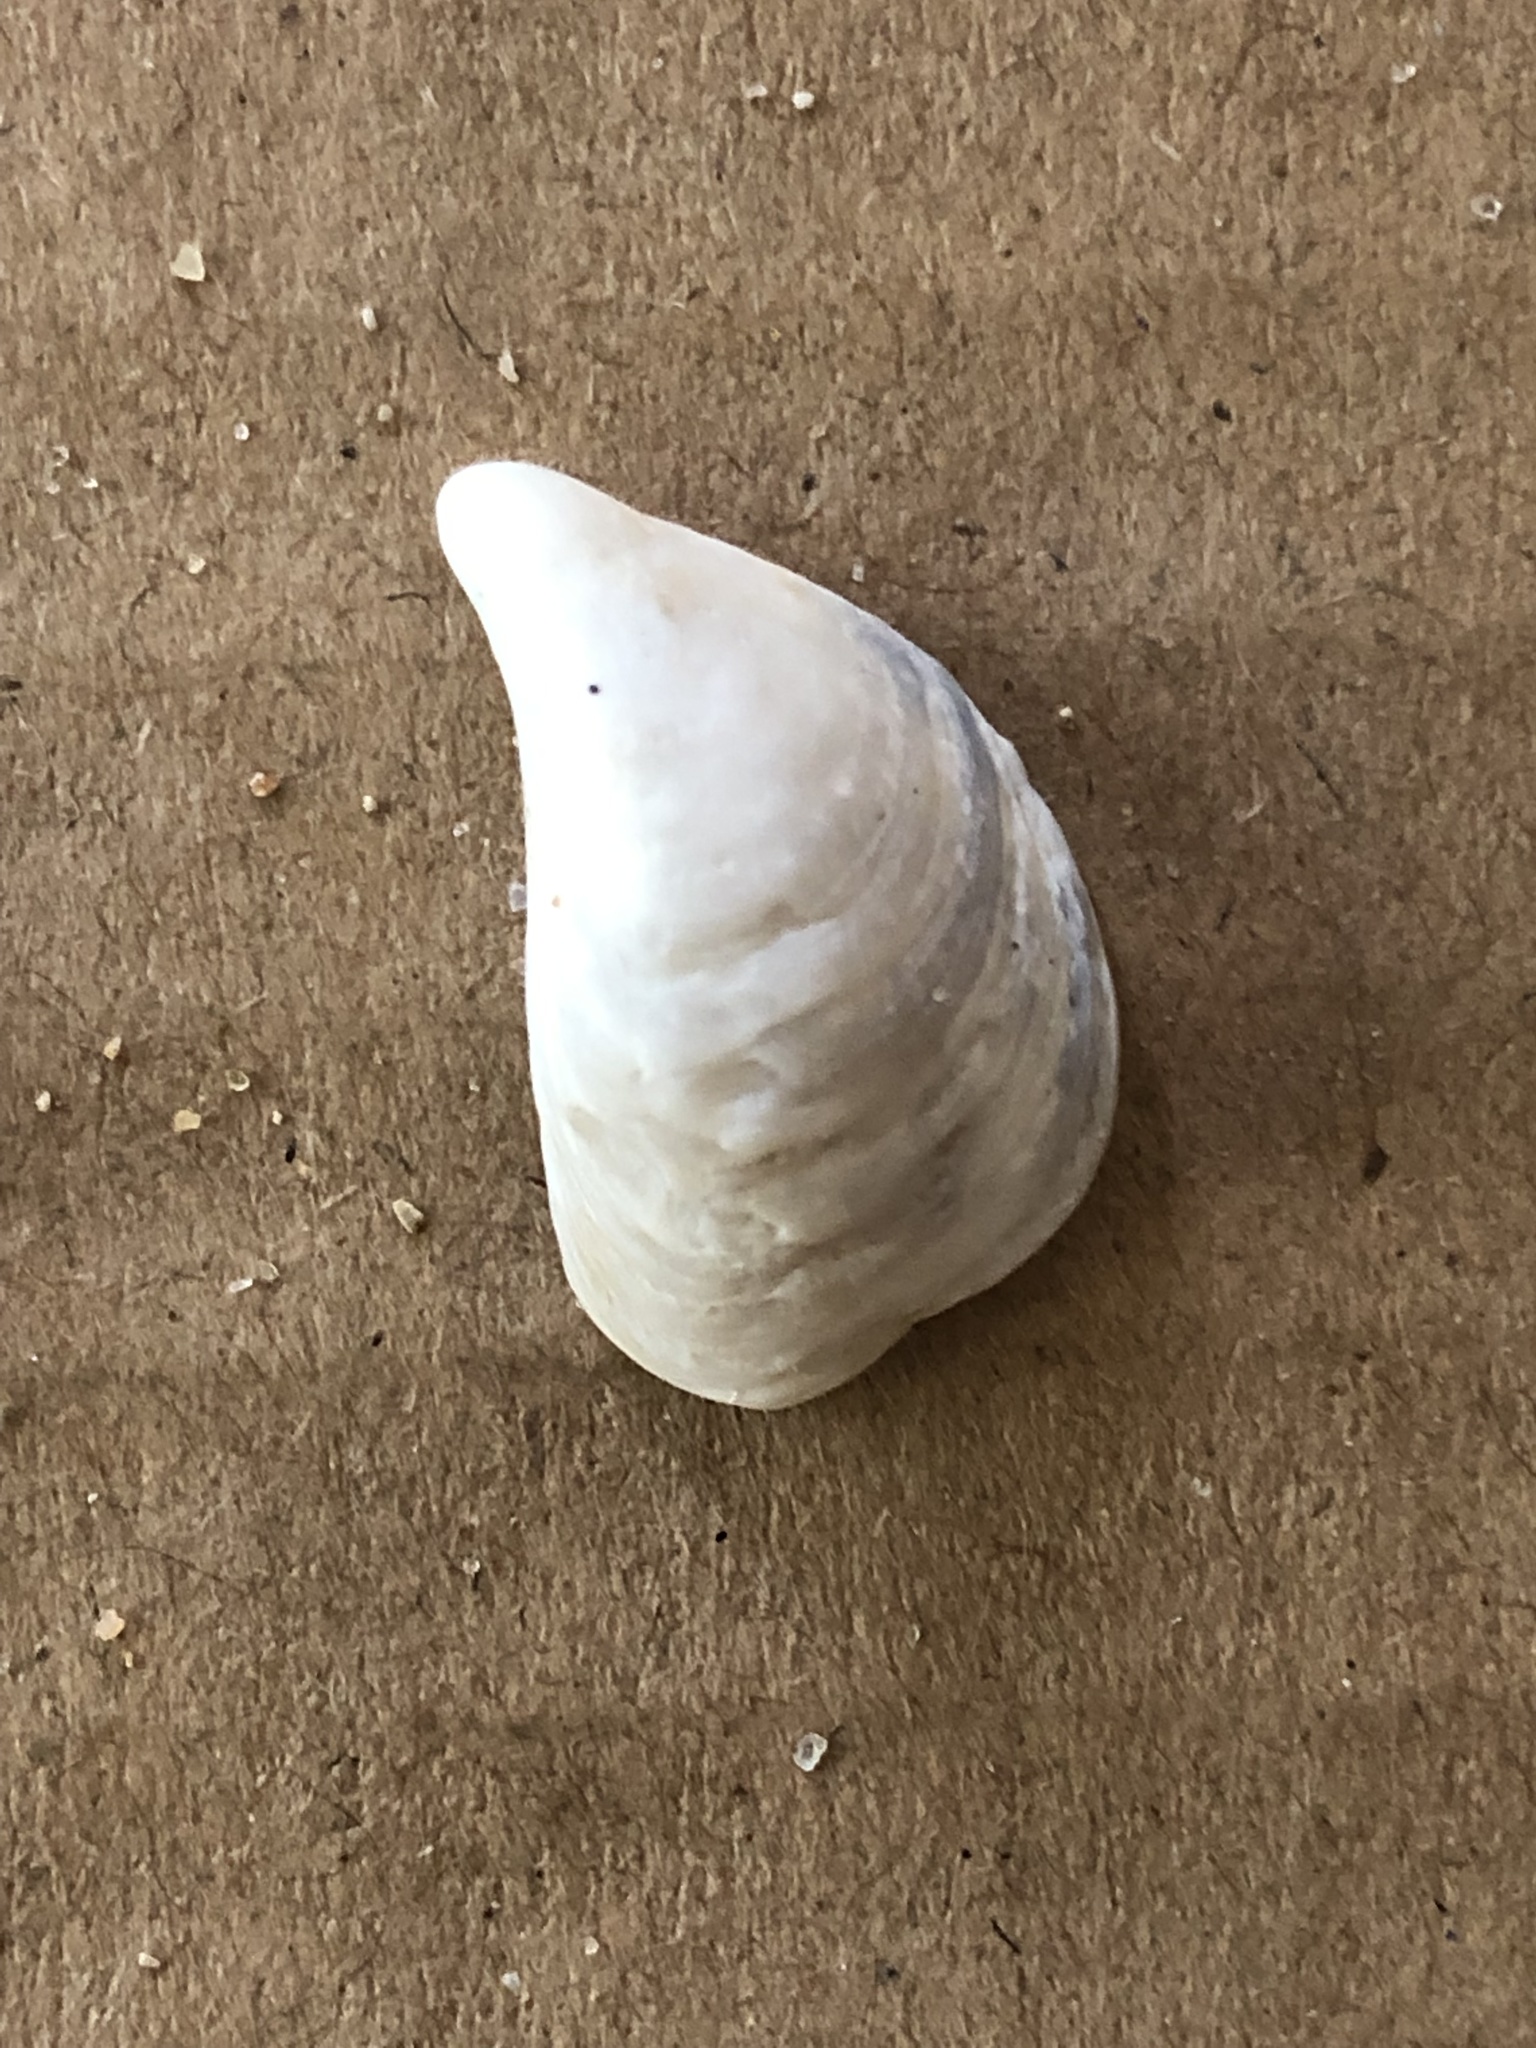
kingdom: Animalia
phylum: Mollusca
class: Bivalvia
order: Myida
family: Dreissenidae
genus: Dreissena
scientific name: Dreissena bugensis
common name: Quagga mussel
